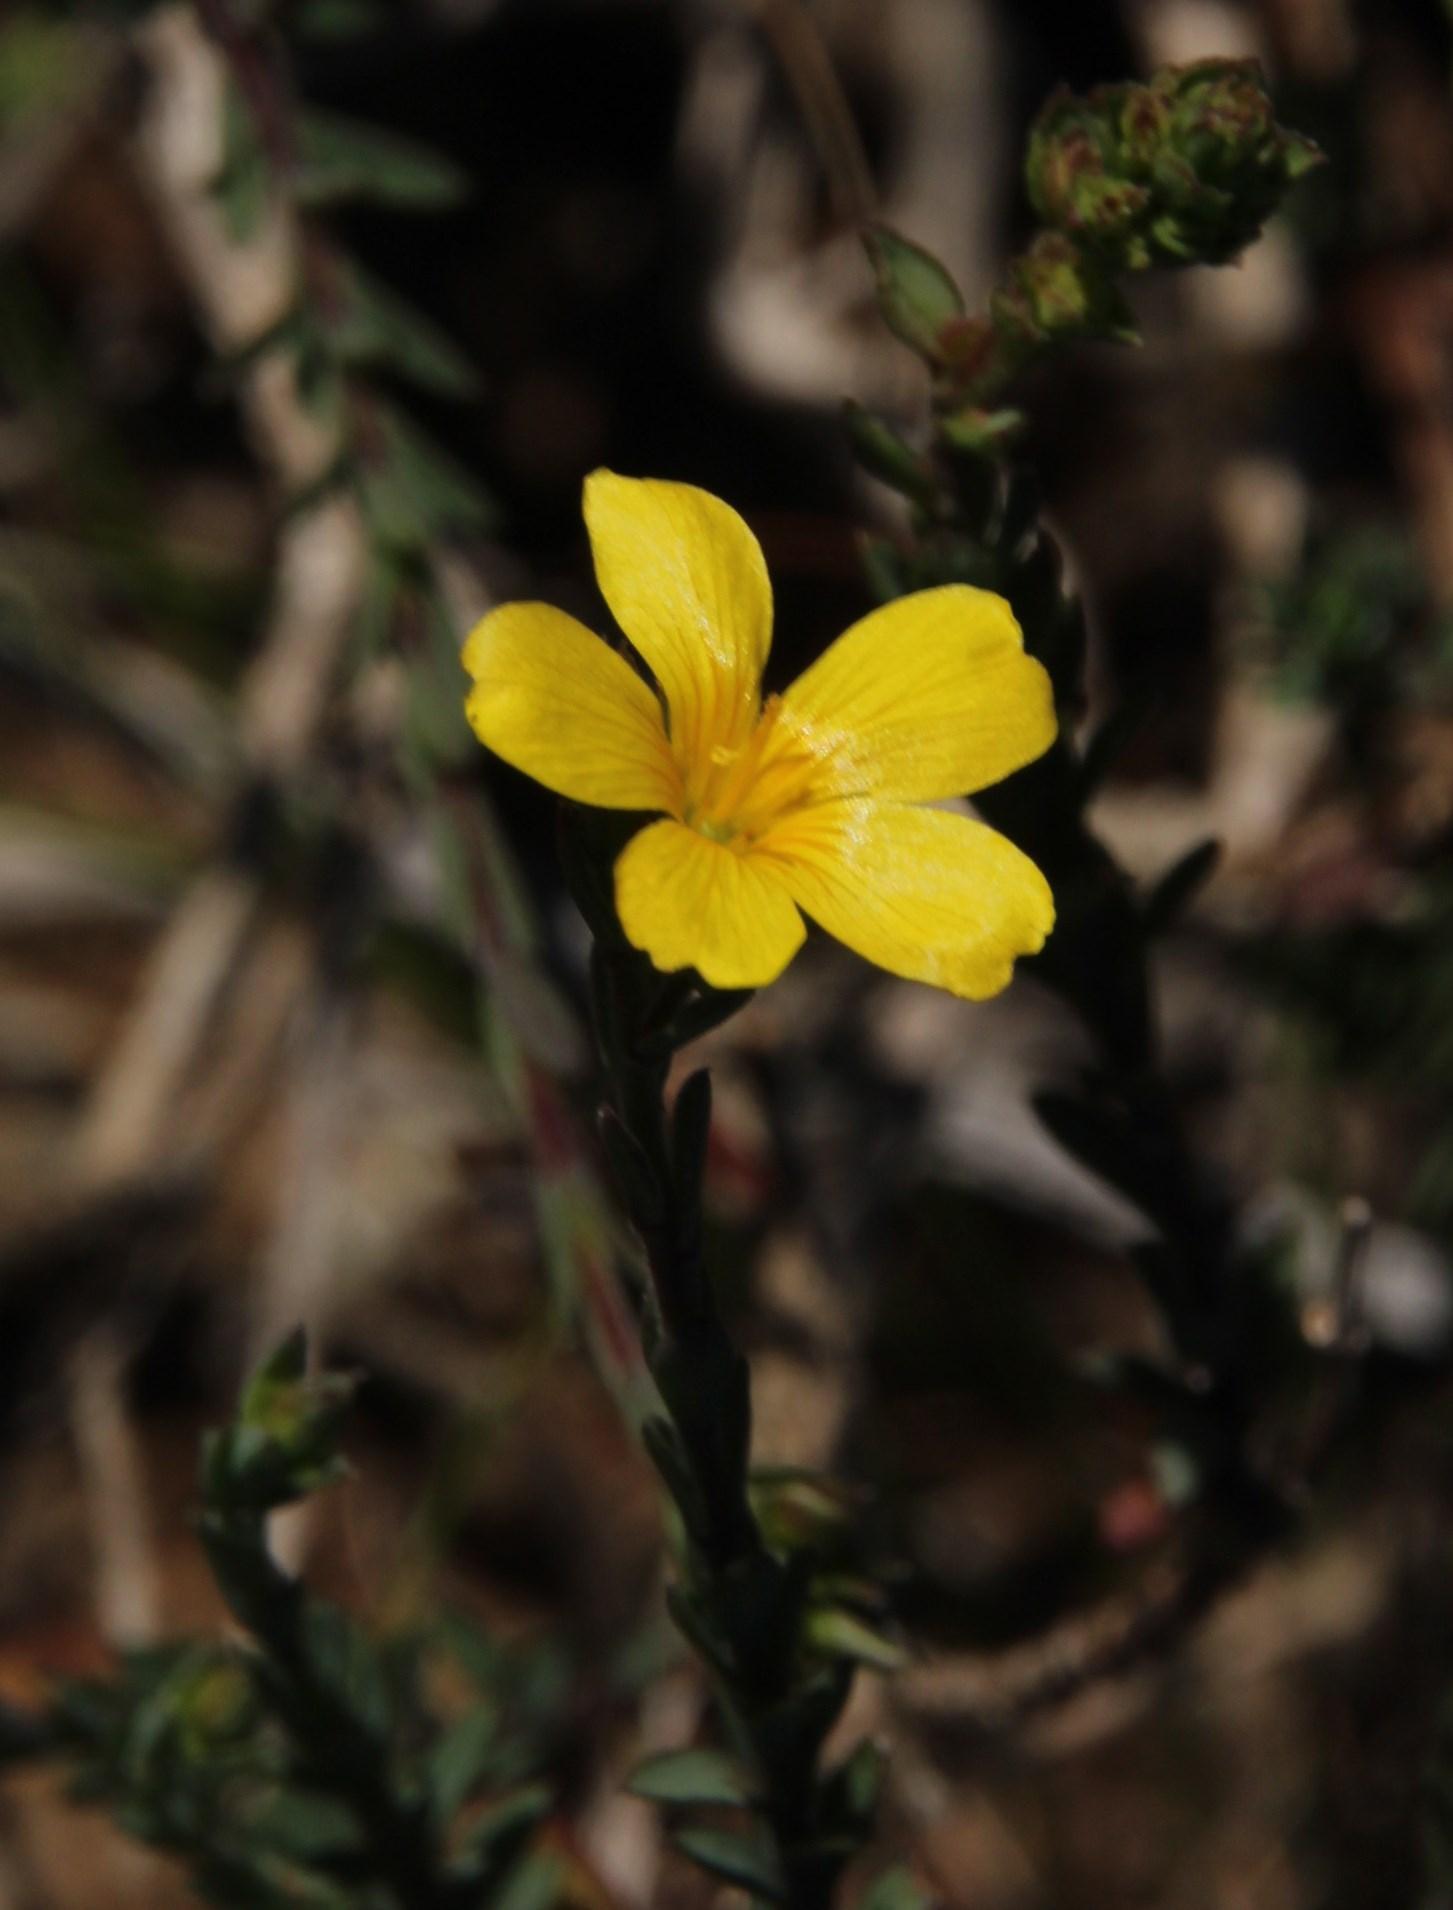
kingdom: Plantae
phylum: Tracheophyta
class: Magnoliopsida
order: Malpighiales
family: Linaceae
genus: Linum
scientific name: Linum africanum
